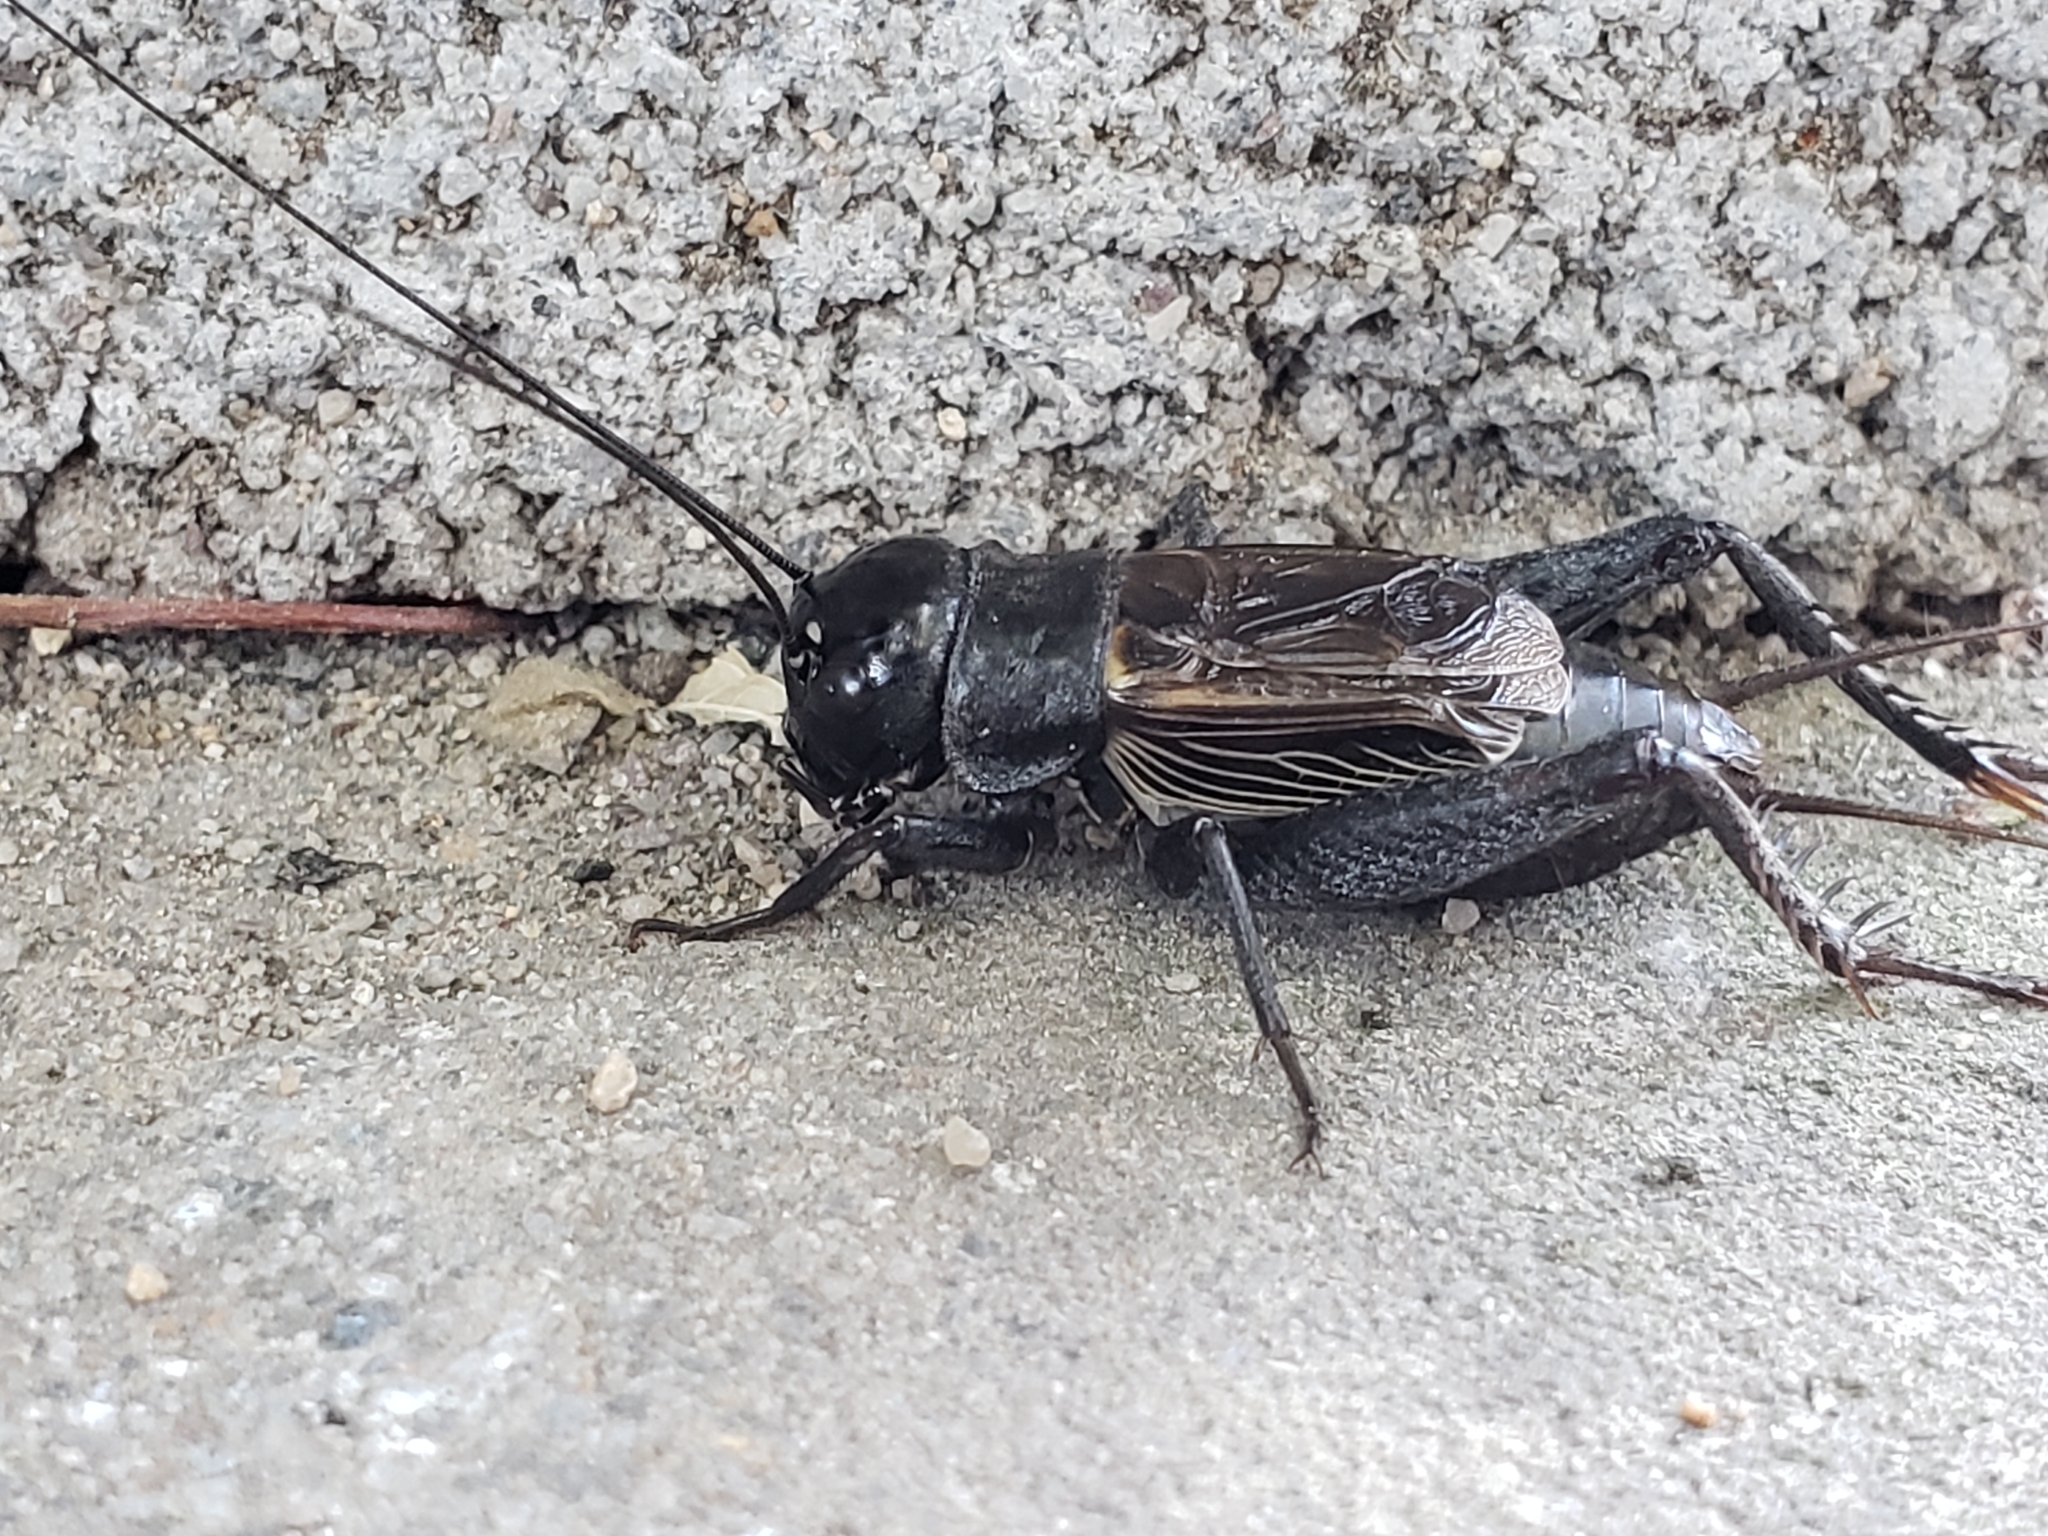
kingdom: Animalia
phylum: Arthropoda
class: Insecta
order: Orthoptera
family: Gryllidae
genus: Gryllus
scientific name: Gryllus pennsylvanicus
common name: Fall field cricket
